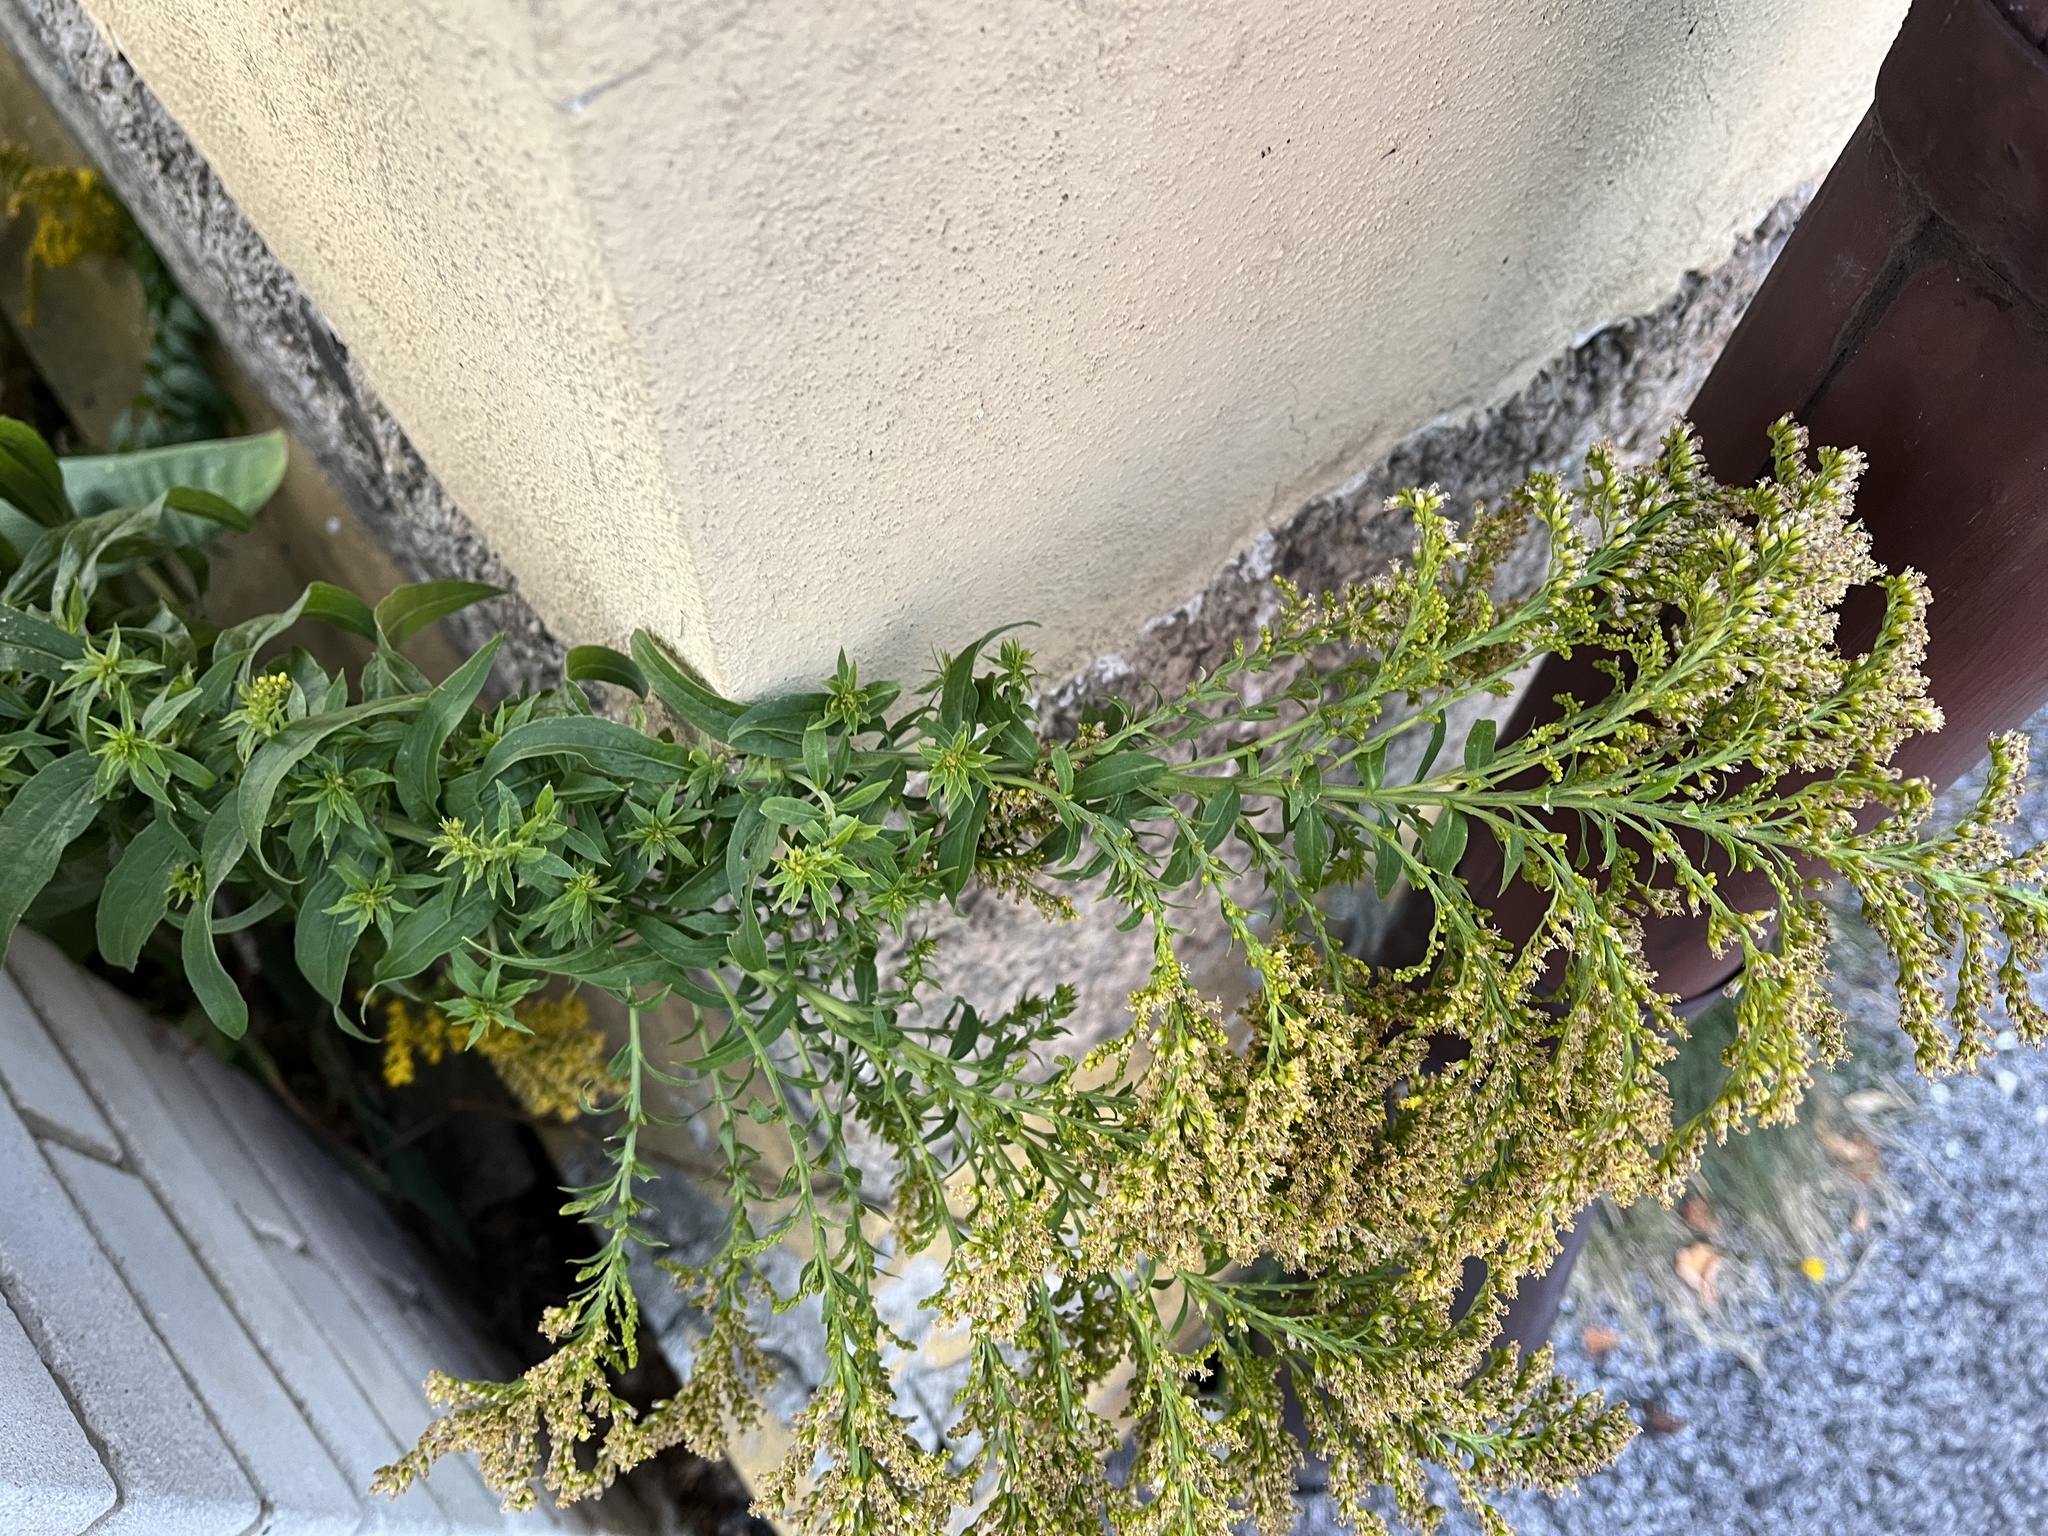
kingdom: Plantae
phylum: Tracheophyta
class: Magnoliopsida
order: Asterales
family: Asteraceae
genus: Solidago
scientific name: Solidago canadensis
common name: Canada goldenrod
